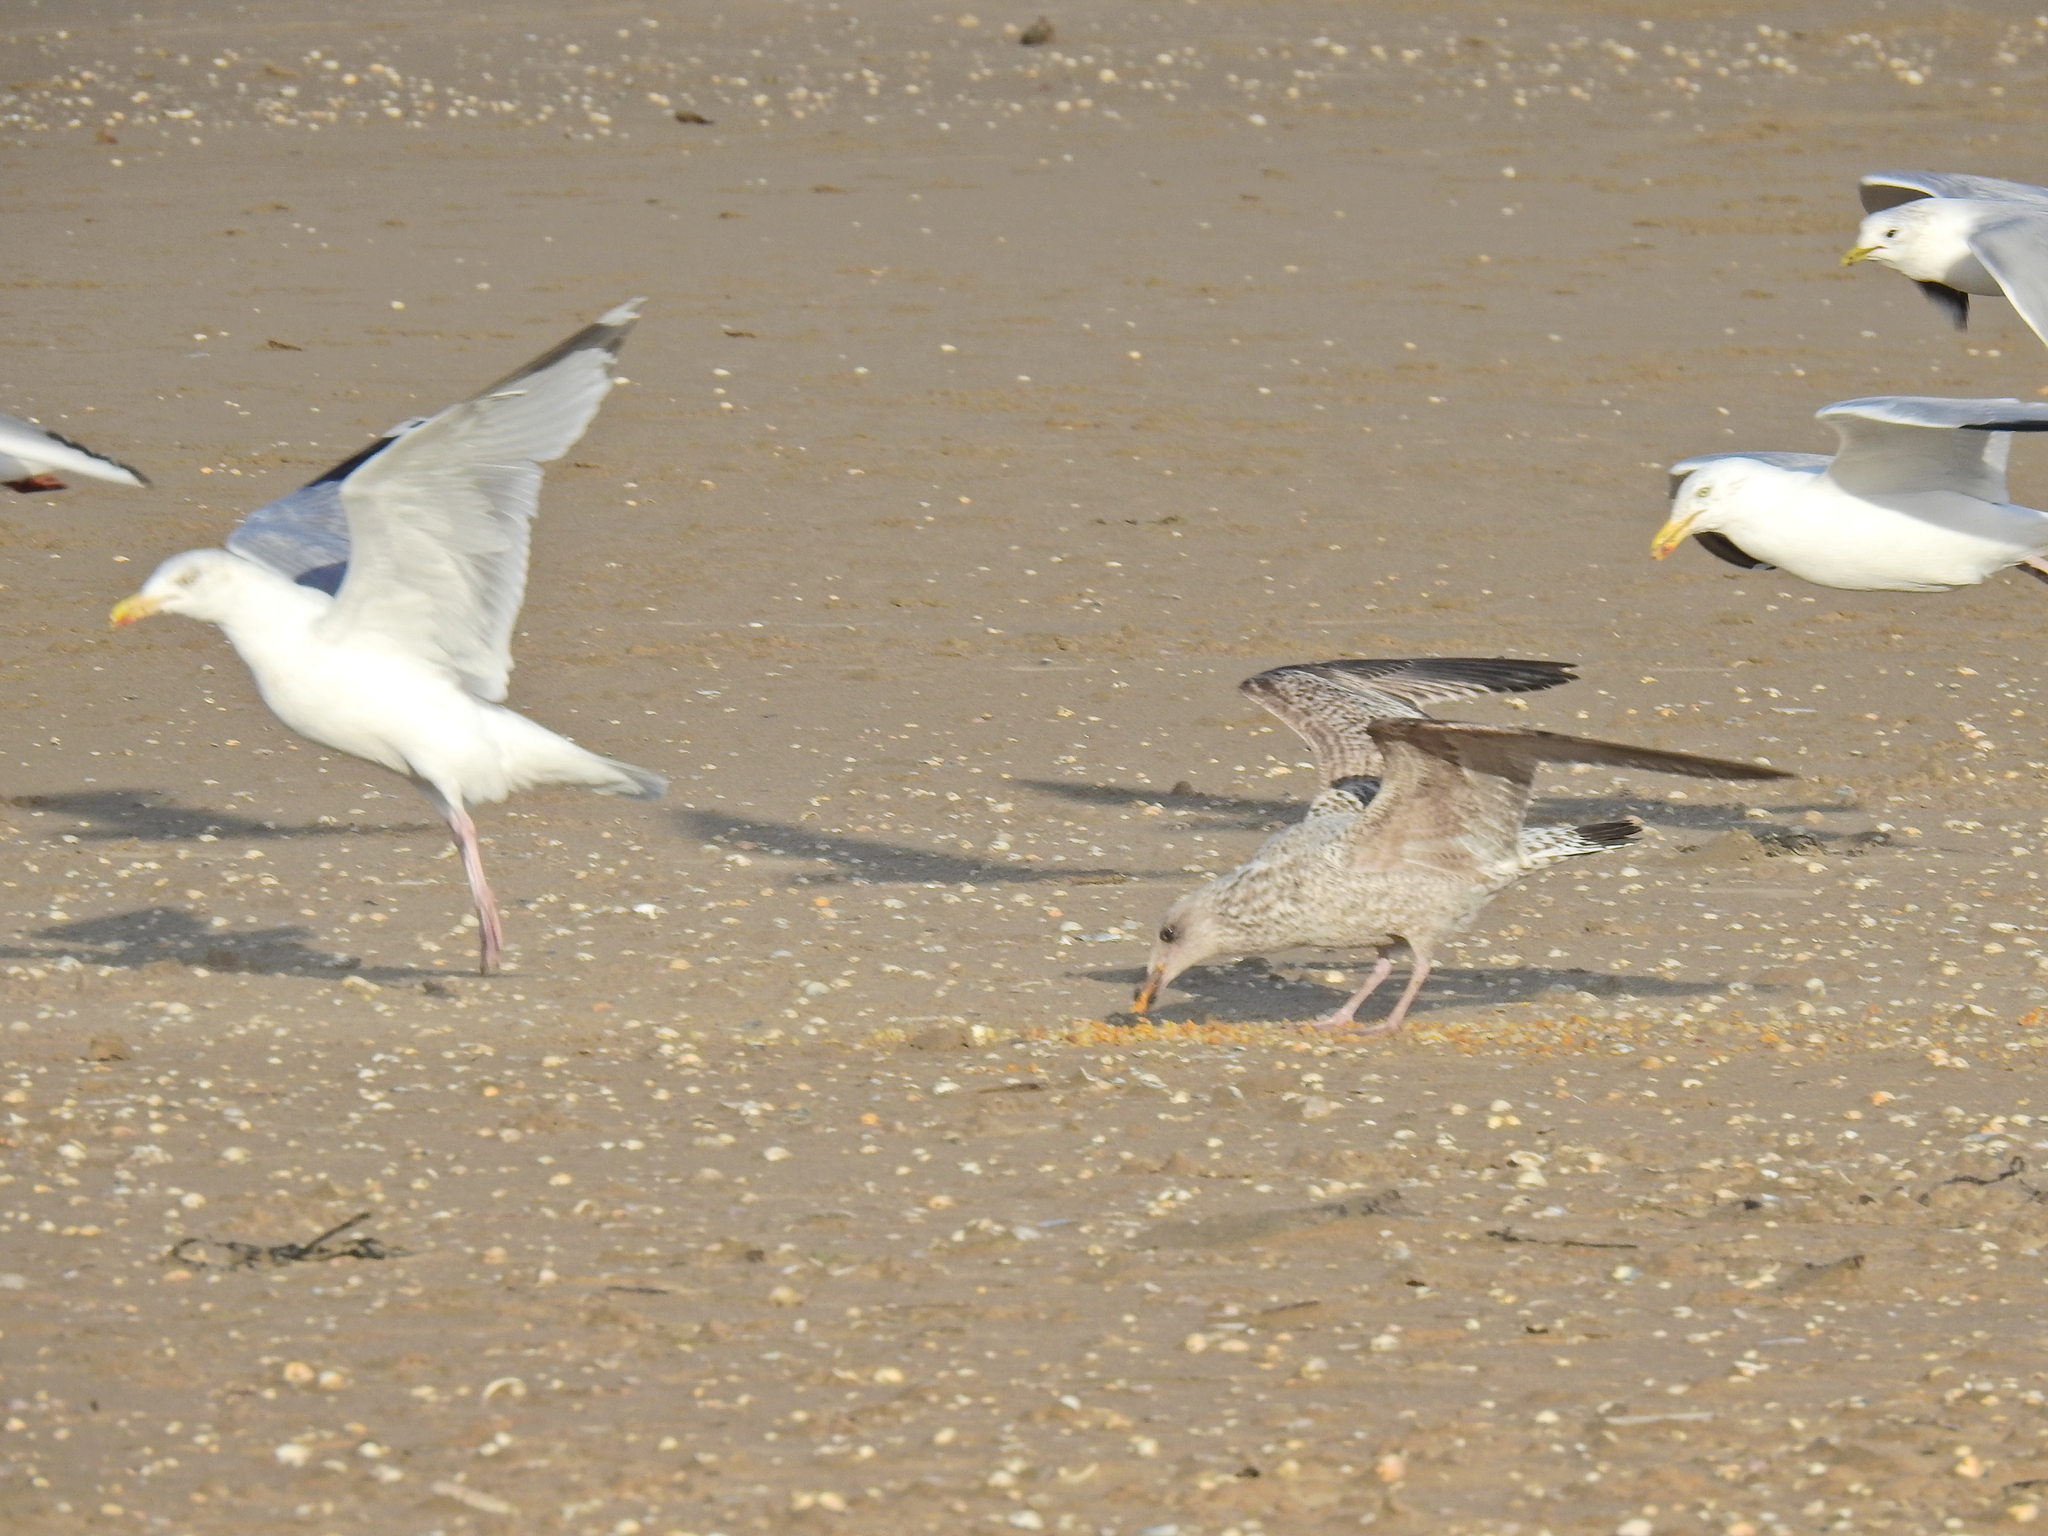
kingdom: Animalia
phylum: Chordata
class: Aves
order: Charadriiformes
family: Laridae
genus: Larus
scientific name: Larus argentatus
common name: Herring gull
